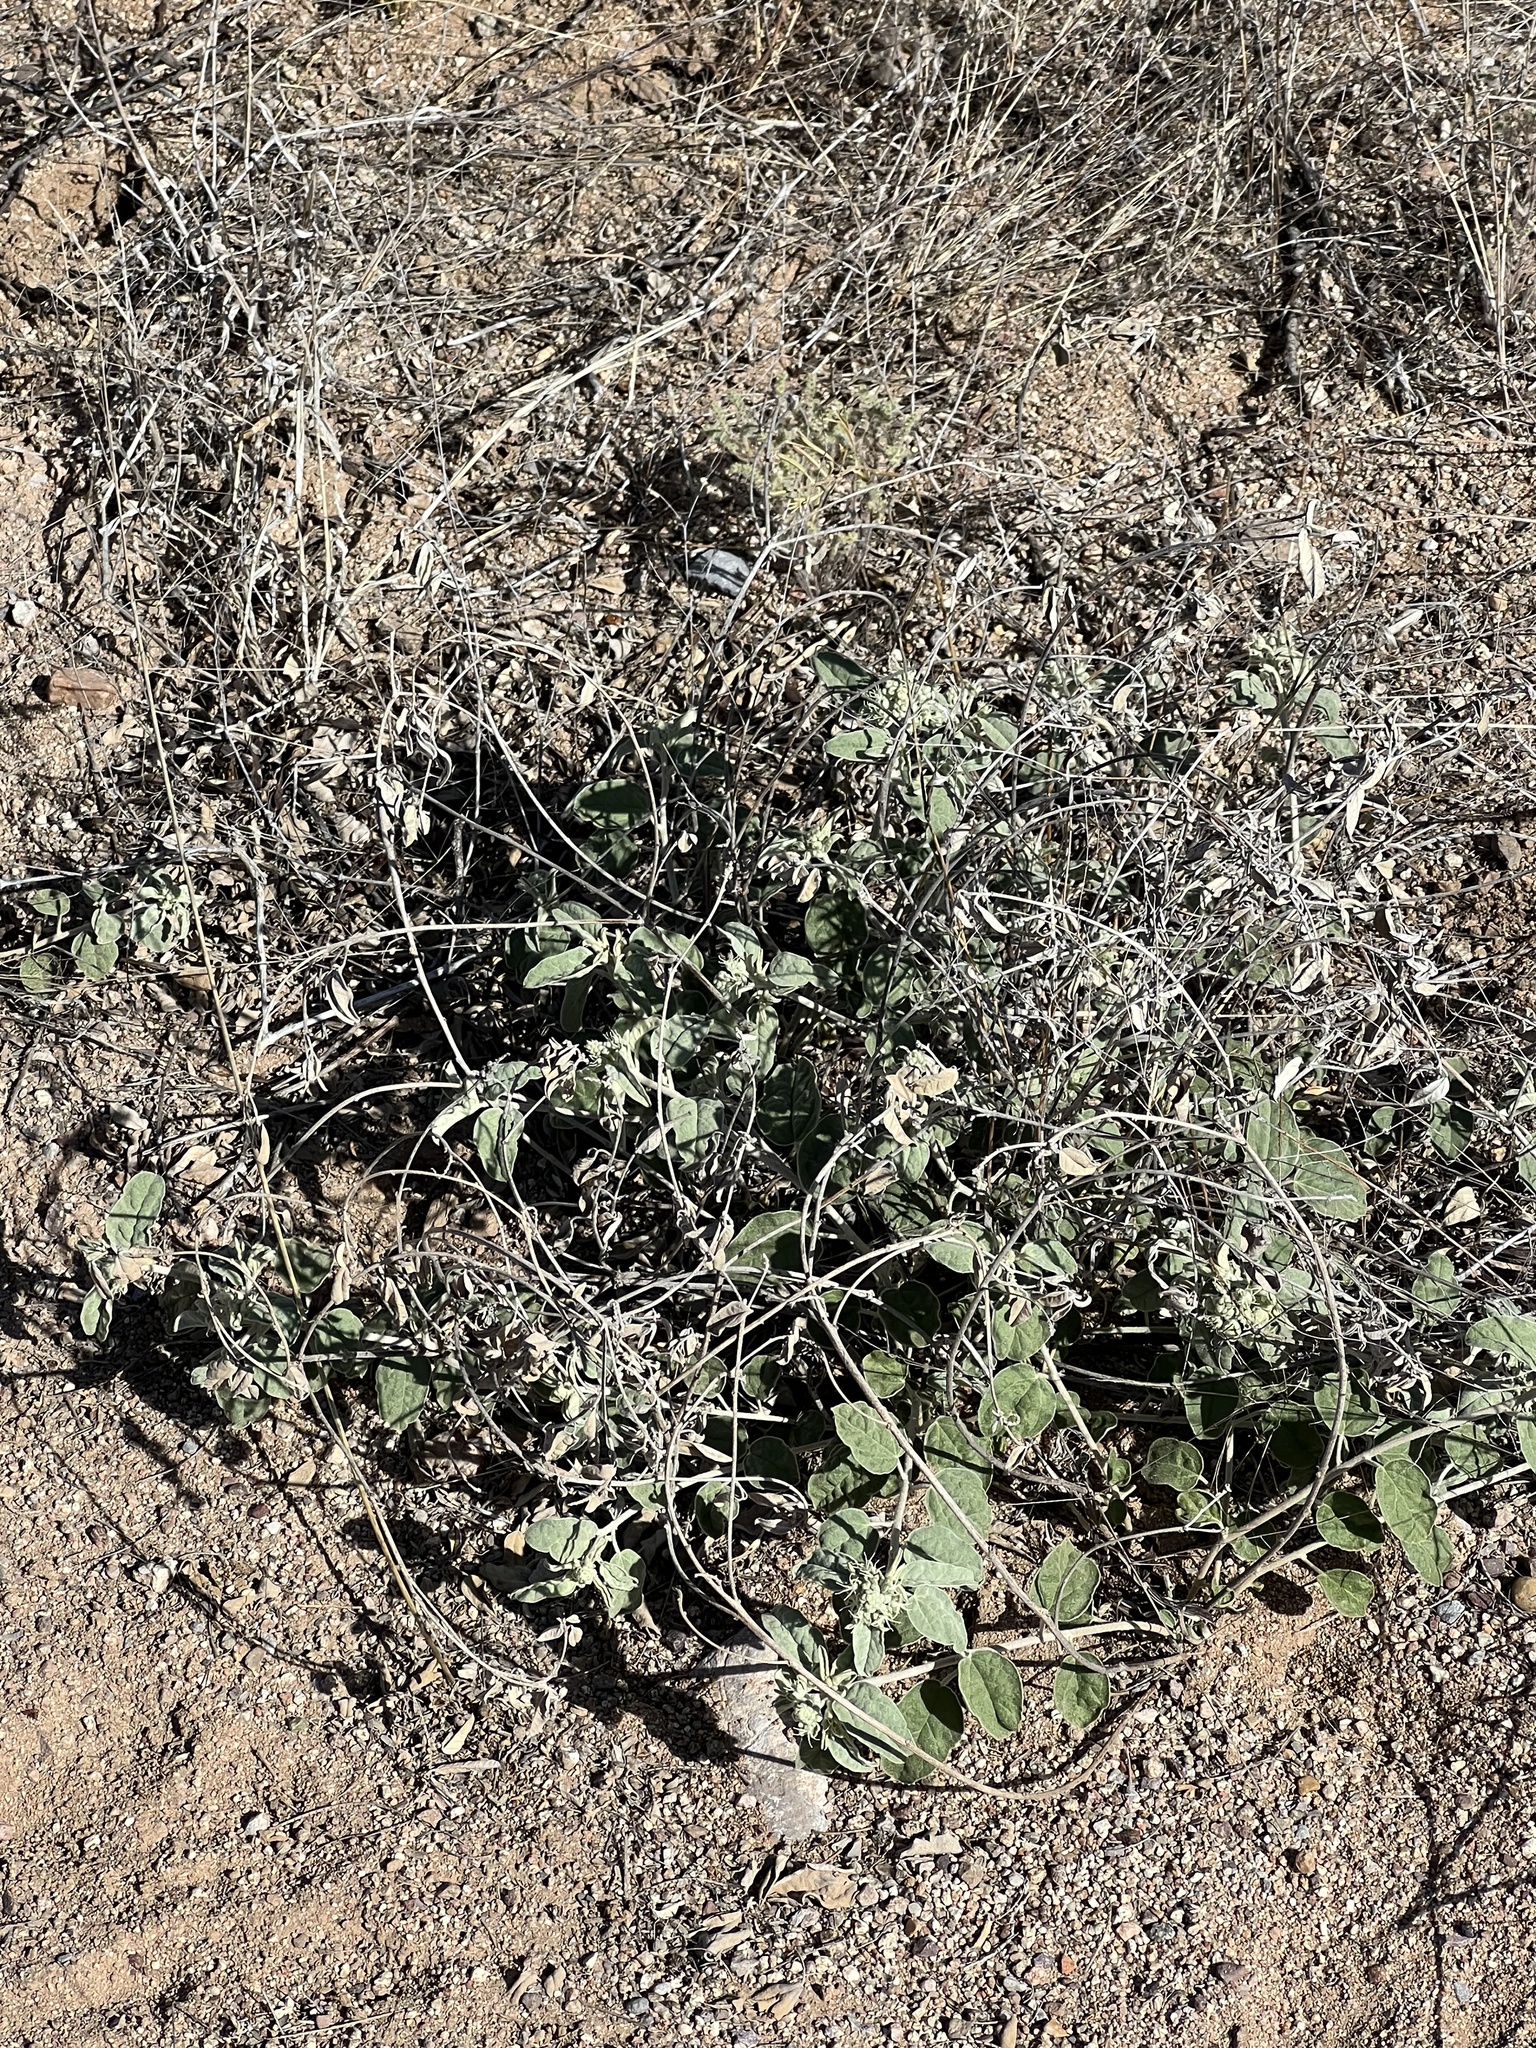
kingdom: Plantae
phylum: Tracheophyta
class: Magnoliopsida
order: Malpighiales
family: Euphorbiaceae
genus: Croton
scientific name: Croton pottsii
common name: Leatherweed
